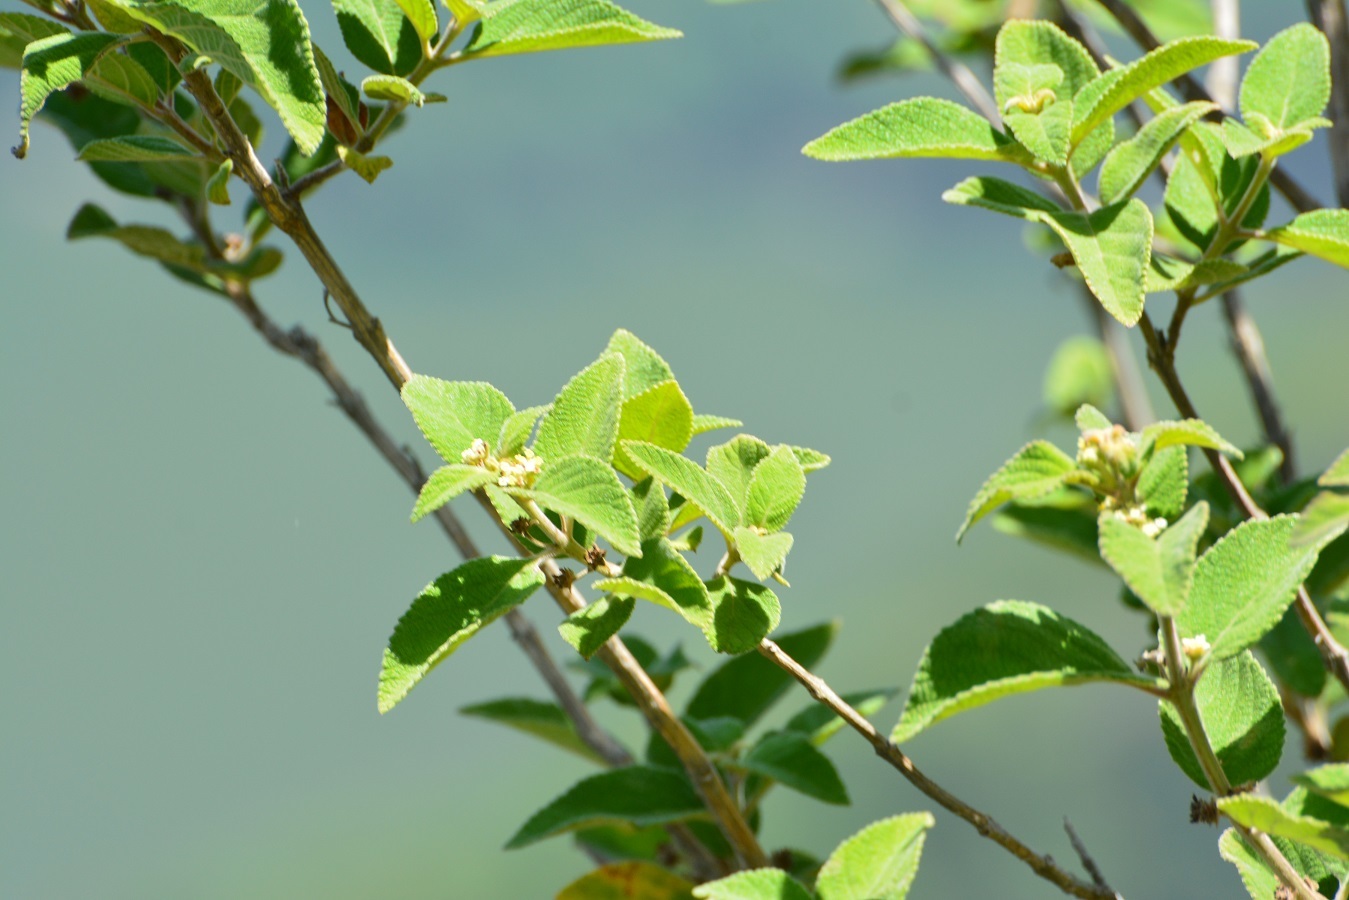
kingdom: Plantae
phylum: Tracheophyta
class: Magnoliopsida
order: Lamiales
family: Verbenaceae
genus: Lippia
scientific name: Lippia umbellata
